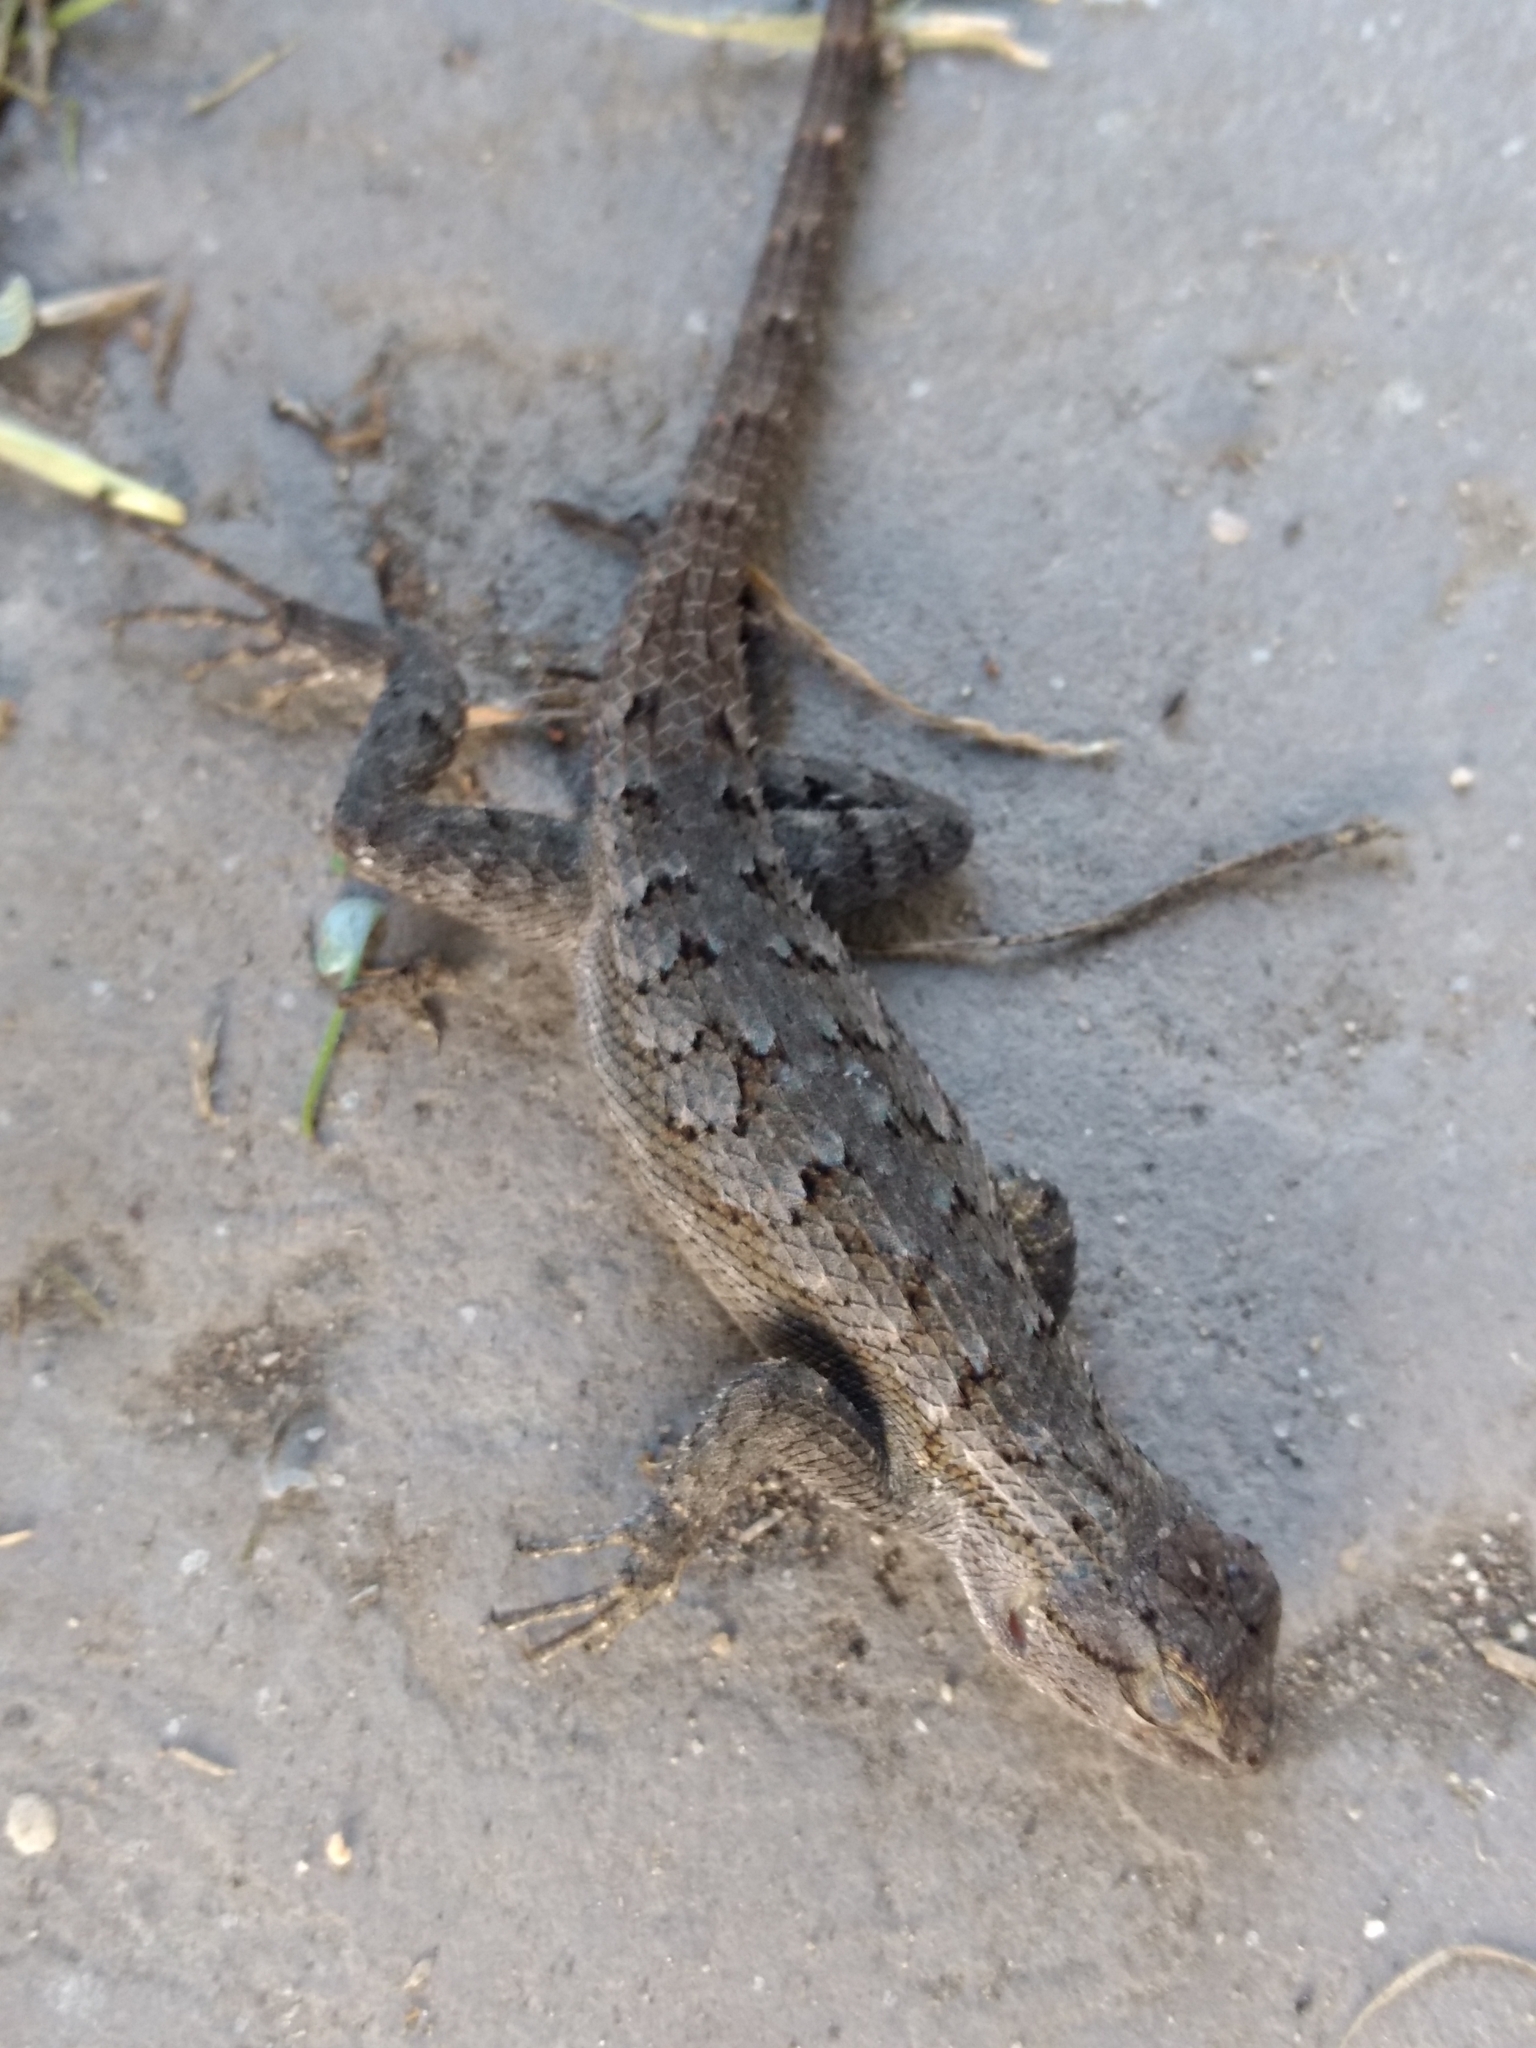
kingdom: Animalia
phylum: Chordata
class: Squamata
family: Phrynosomatidae
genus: Sceloporus
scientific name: Sceloporus occidentalis
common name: Western fence lizard
